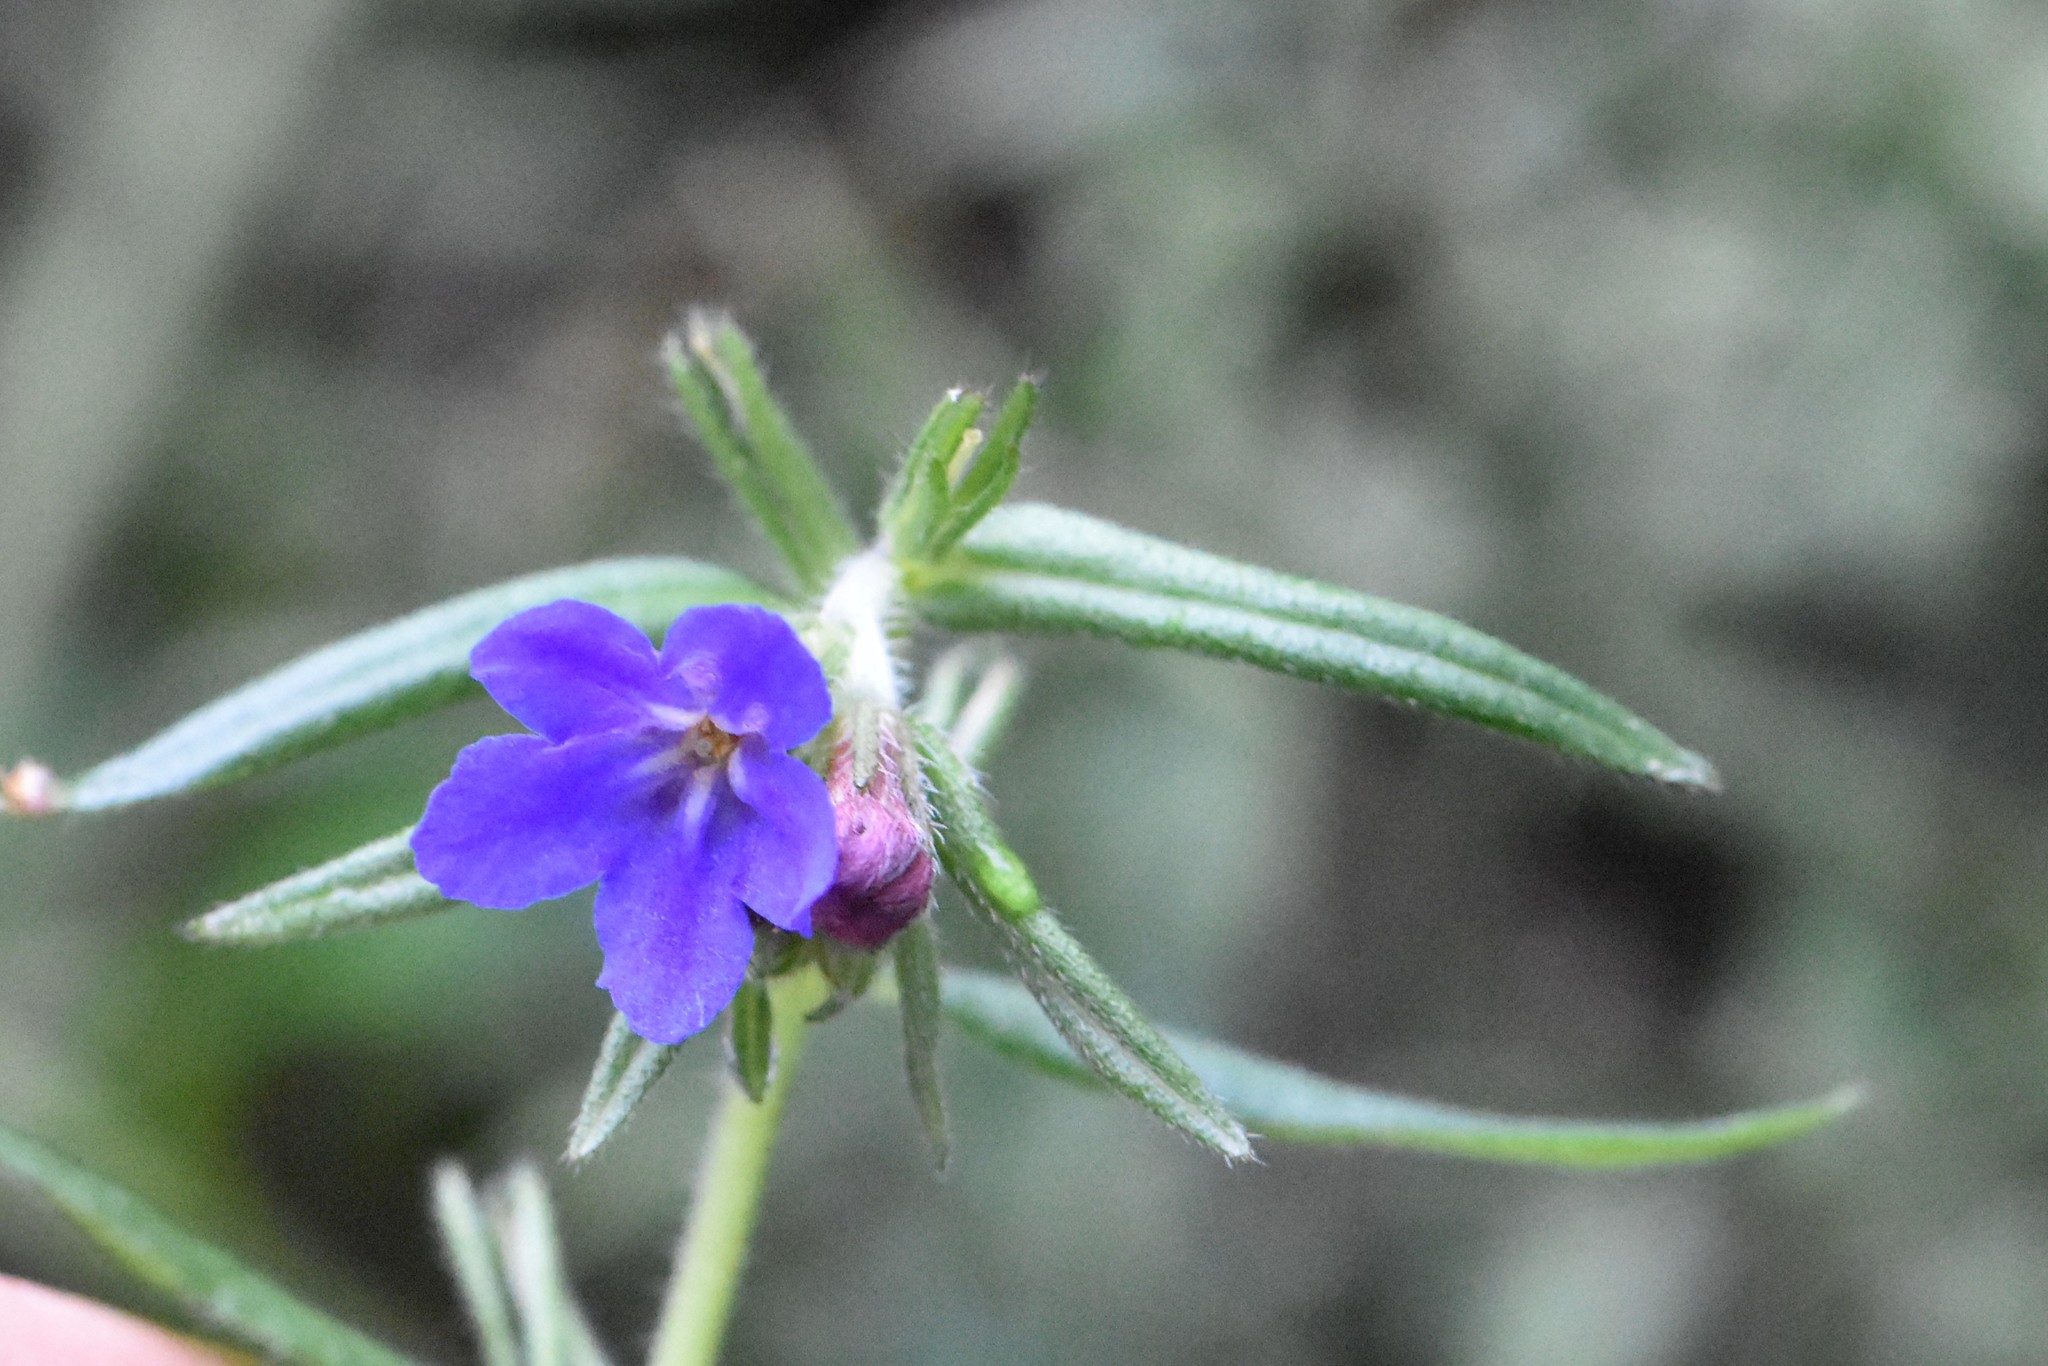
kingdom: Plantae
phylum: Tracheophyta
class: Magnoliopsida
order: Boraginales
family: Boraginaceae
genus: Aegonychon
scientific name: Aegonychon purpurocaeruleum
